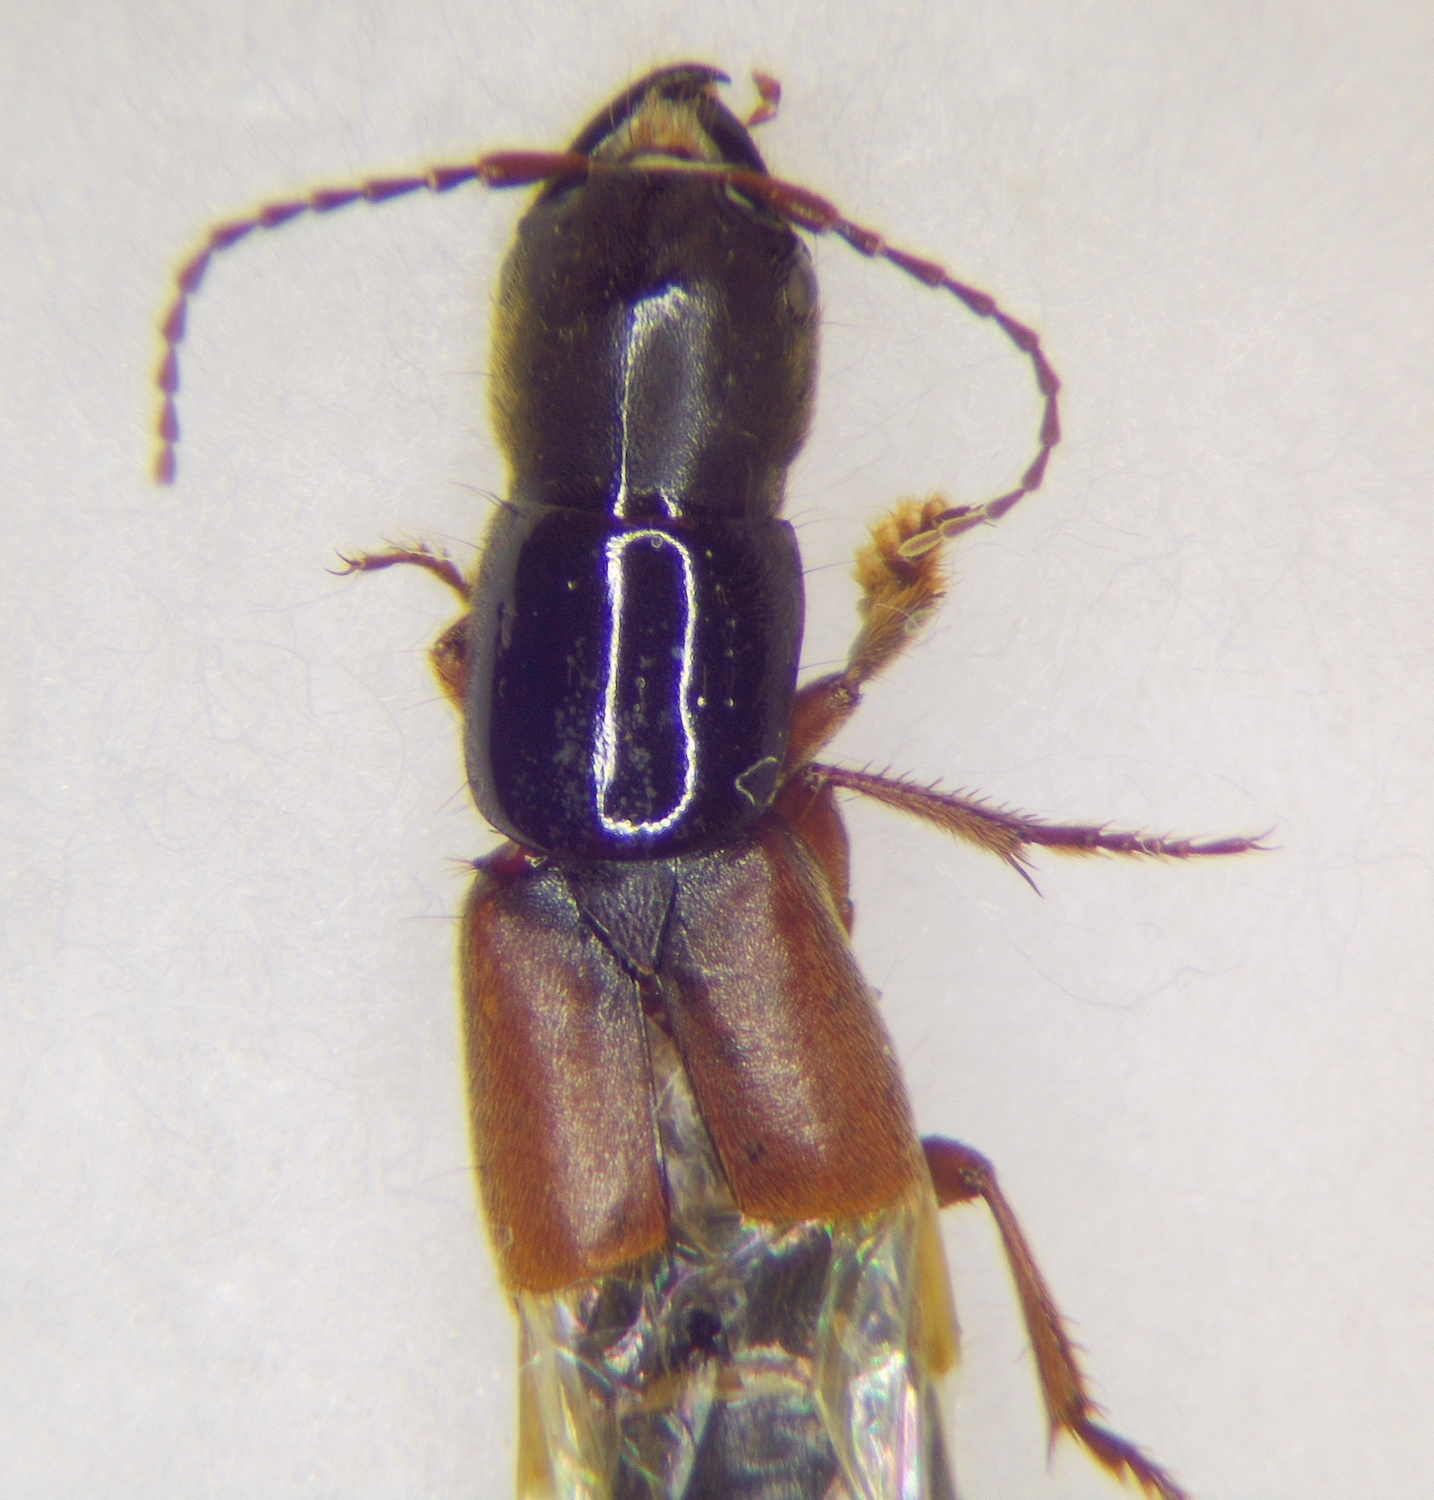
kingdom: Animalia
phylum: Arthropoda
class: Insecta
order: Coleoptera
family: Staphylinidae
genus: Platyprosopus
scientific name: Platyprosopus elongatus
